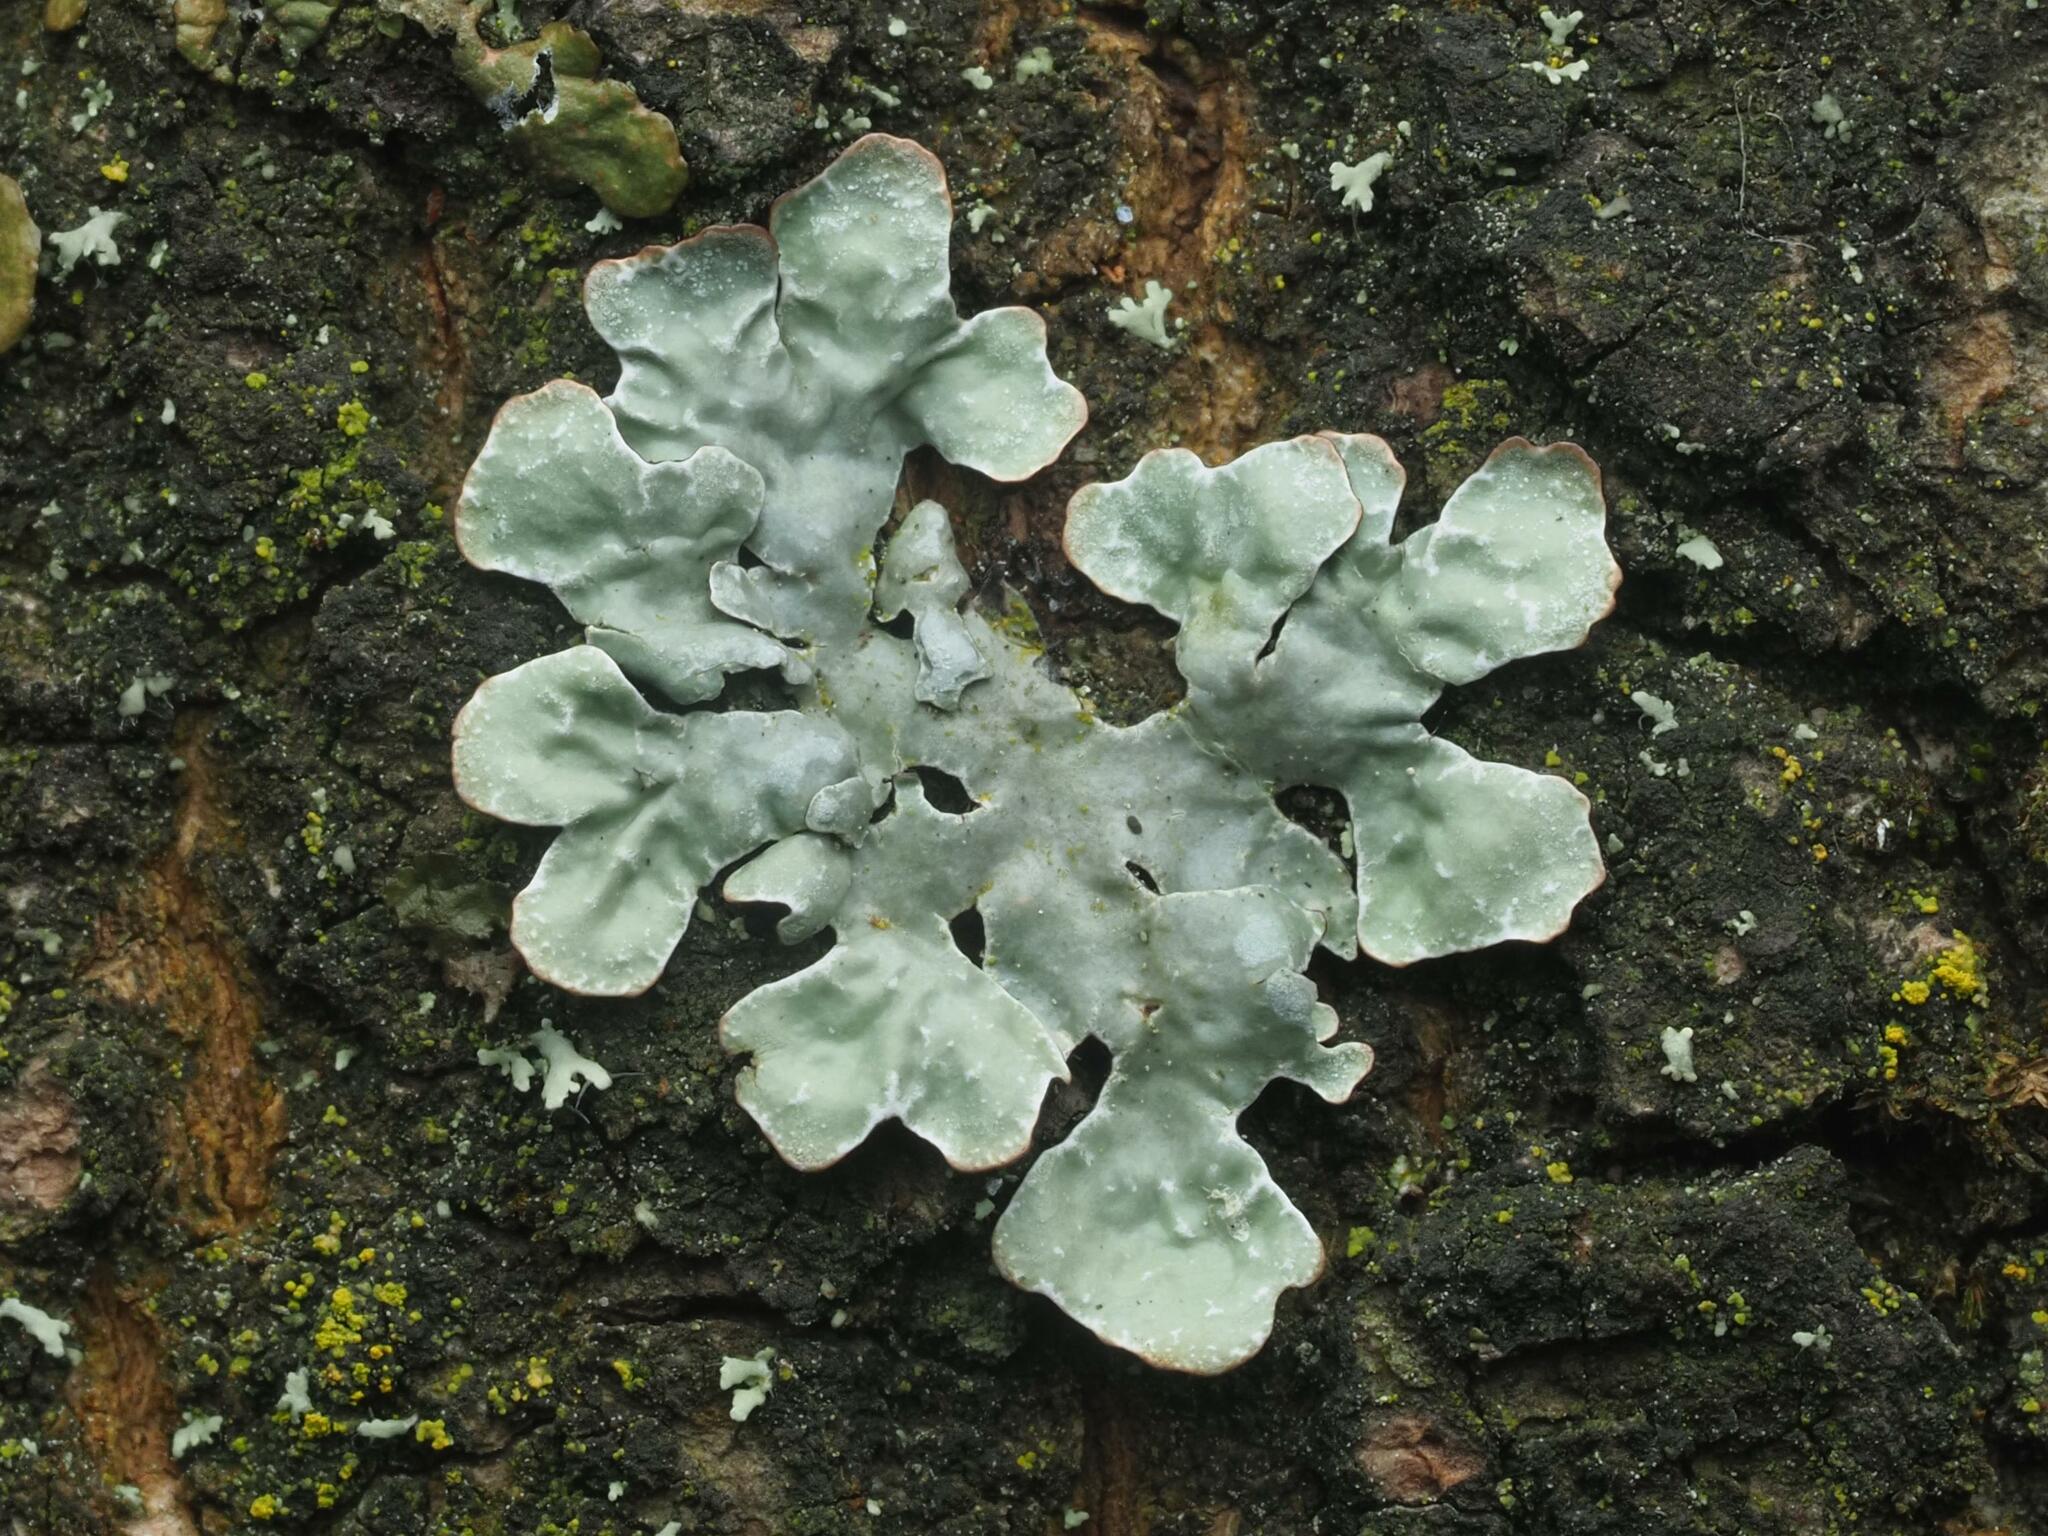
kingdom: Fungi
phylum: Ascomycota
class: Lecanoromycetes
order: Lecanorales
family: Parmeliaceae
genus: Parmelia
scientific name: Parmelia sulcata
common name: Netted shield lichen
